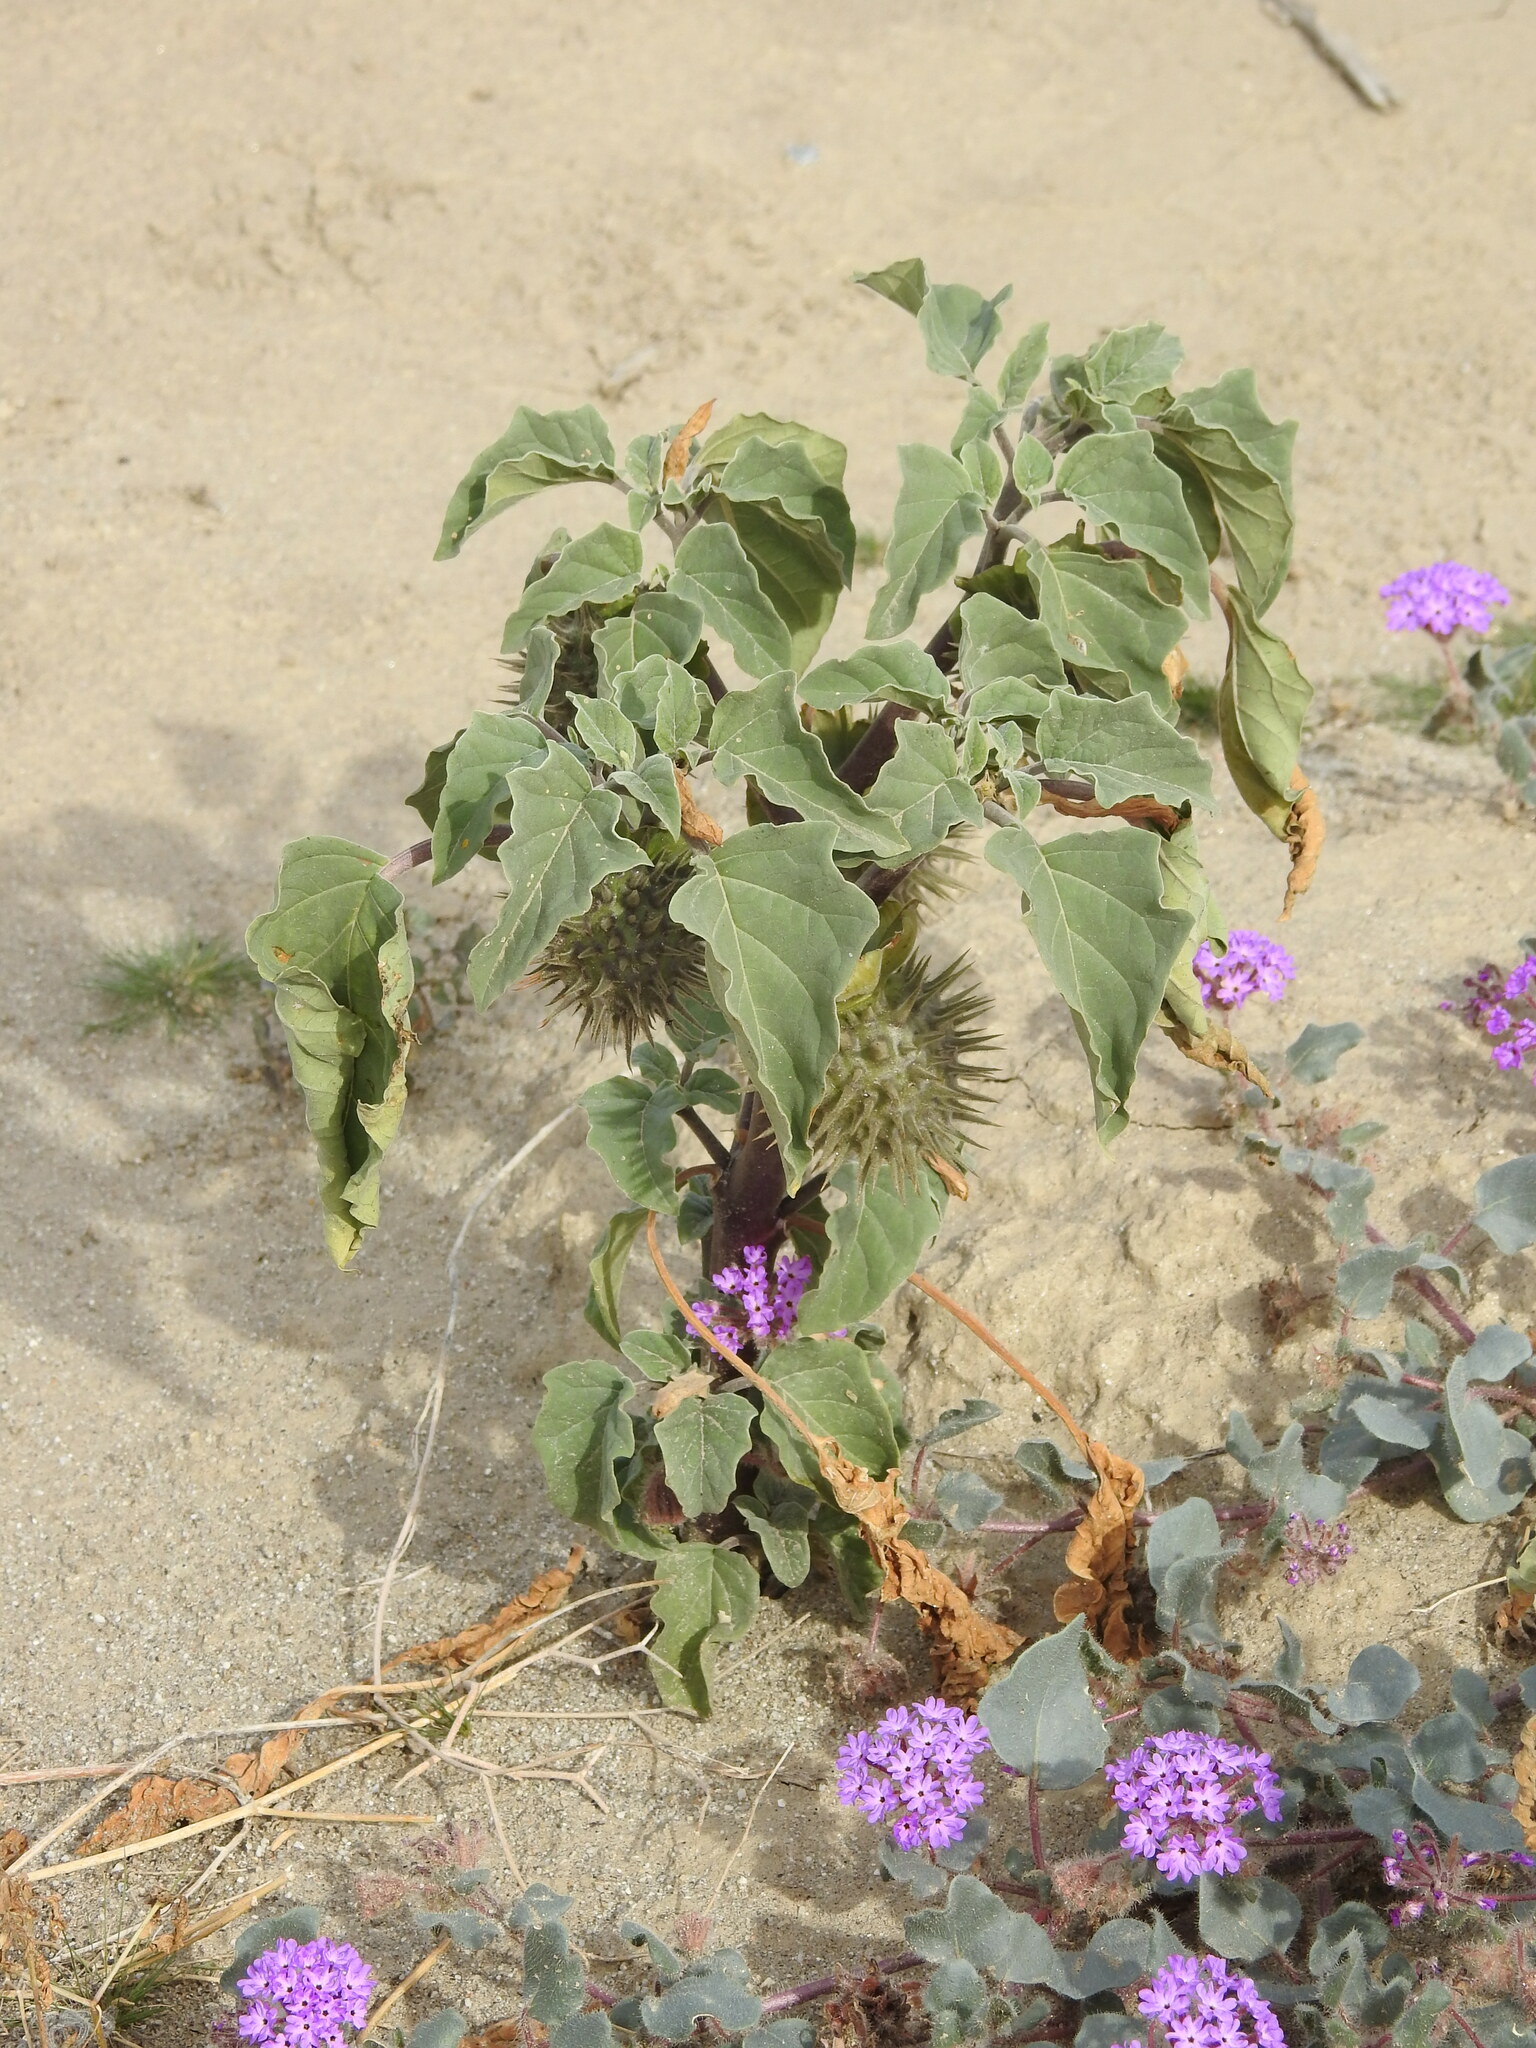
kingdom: Plantae
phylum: Tracheophyta
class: Magnoliopsida
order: Solanales
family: Solanaceae
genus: Datura
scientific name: Datura discolor
